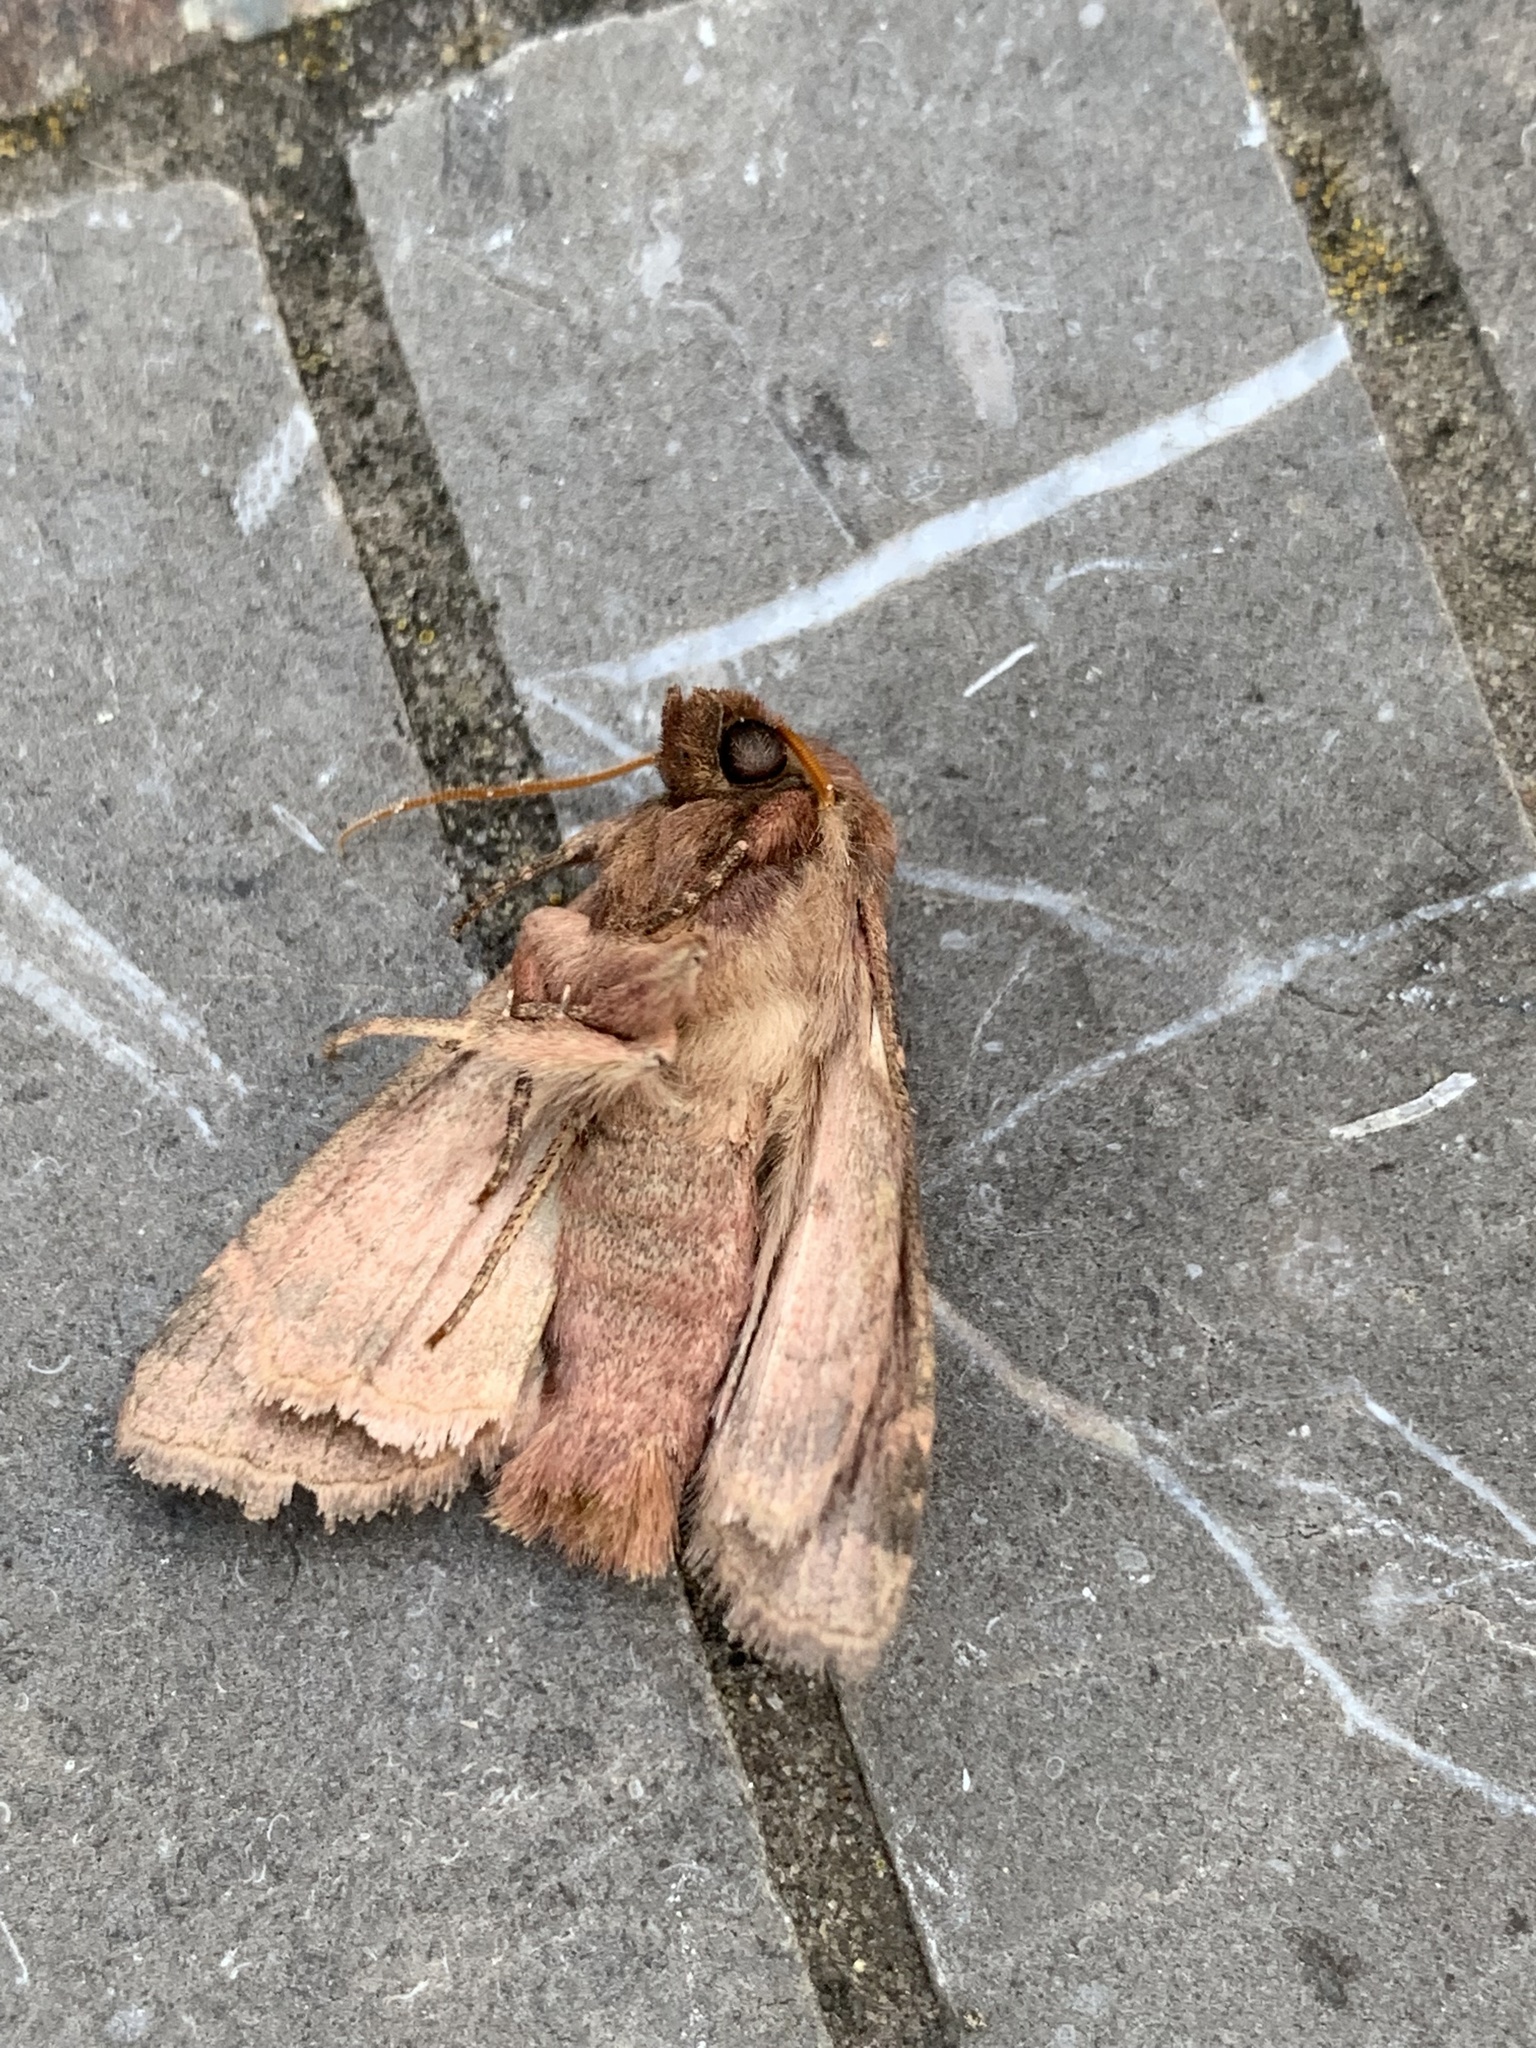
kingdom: Animalia
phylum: Arthropoda
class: Insecta
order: Lepidoptera
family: Noctuidae
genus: Nephelodes
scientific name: Nephelodes minians
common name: Bronzed cutworm
